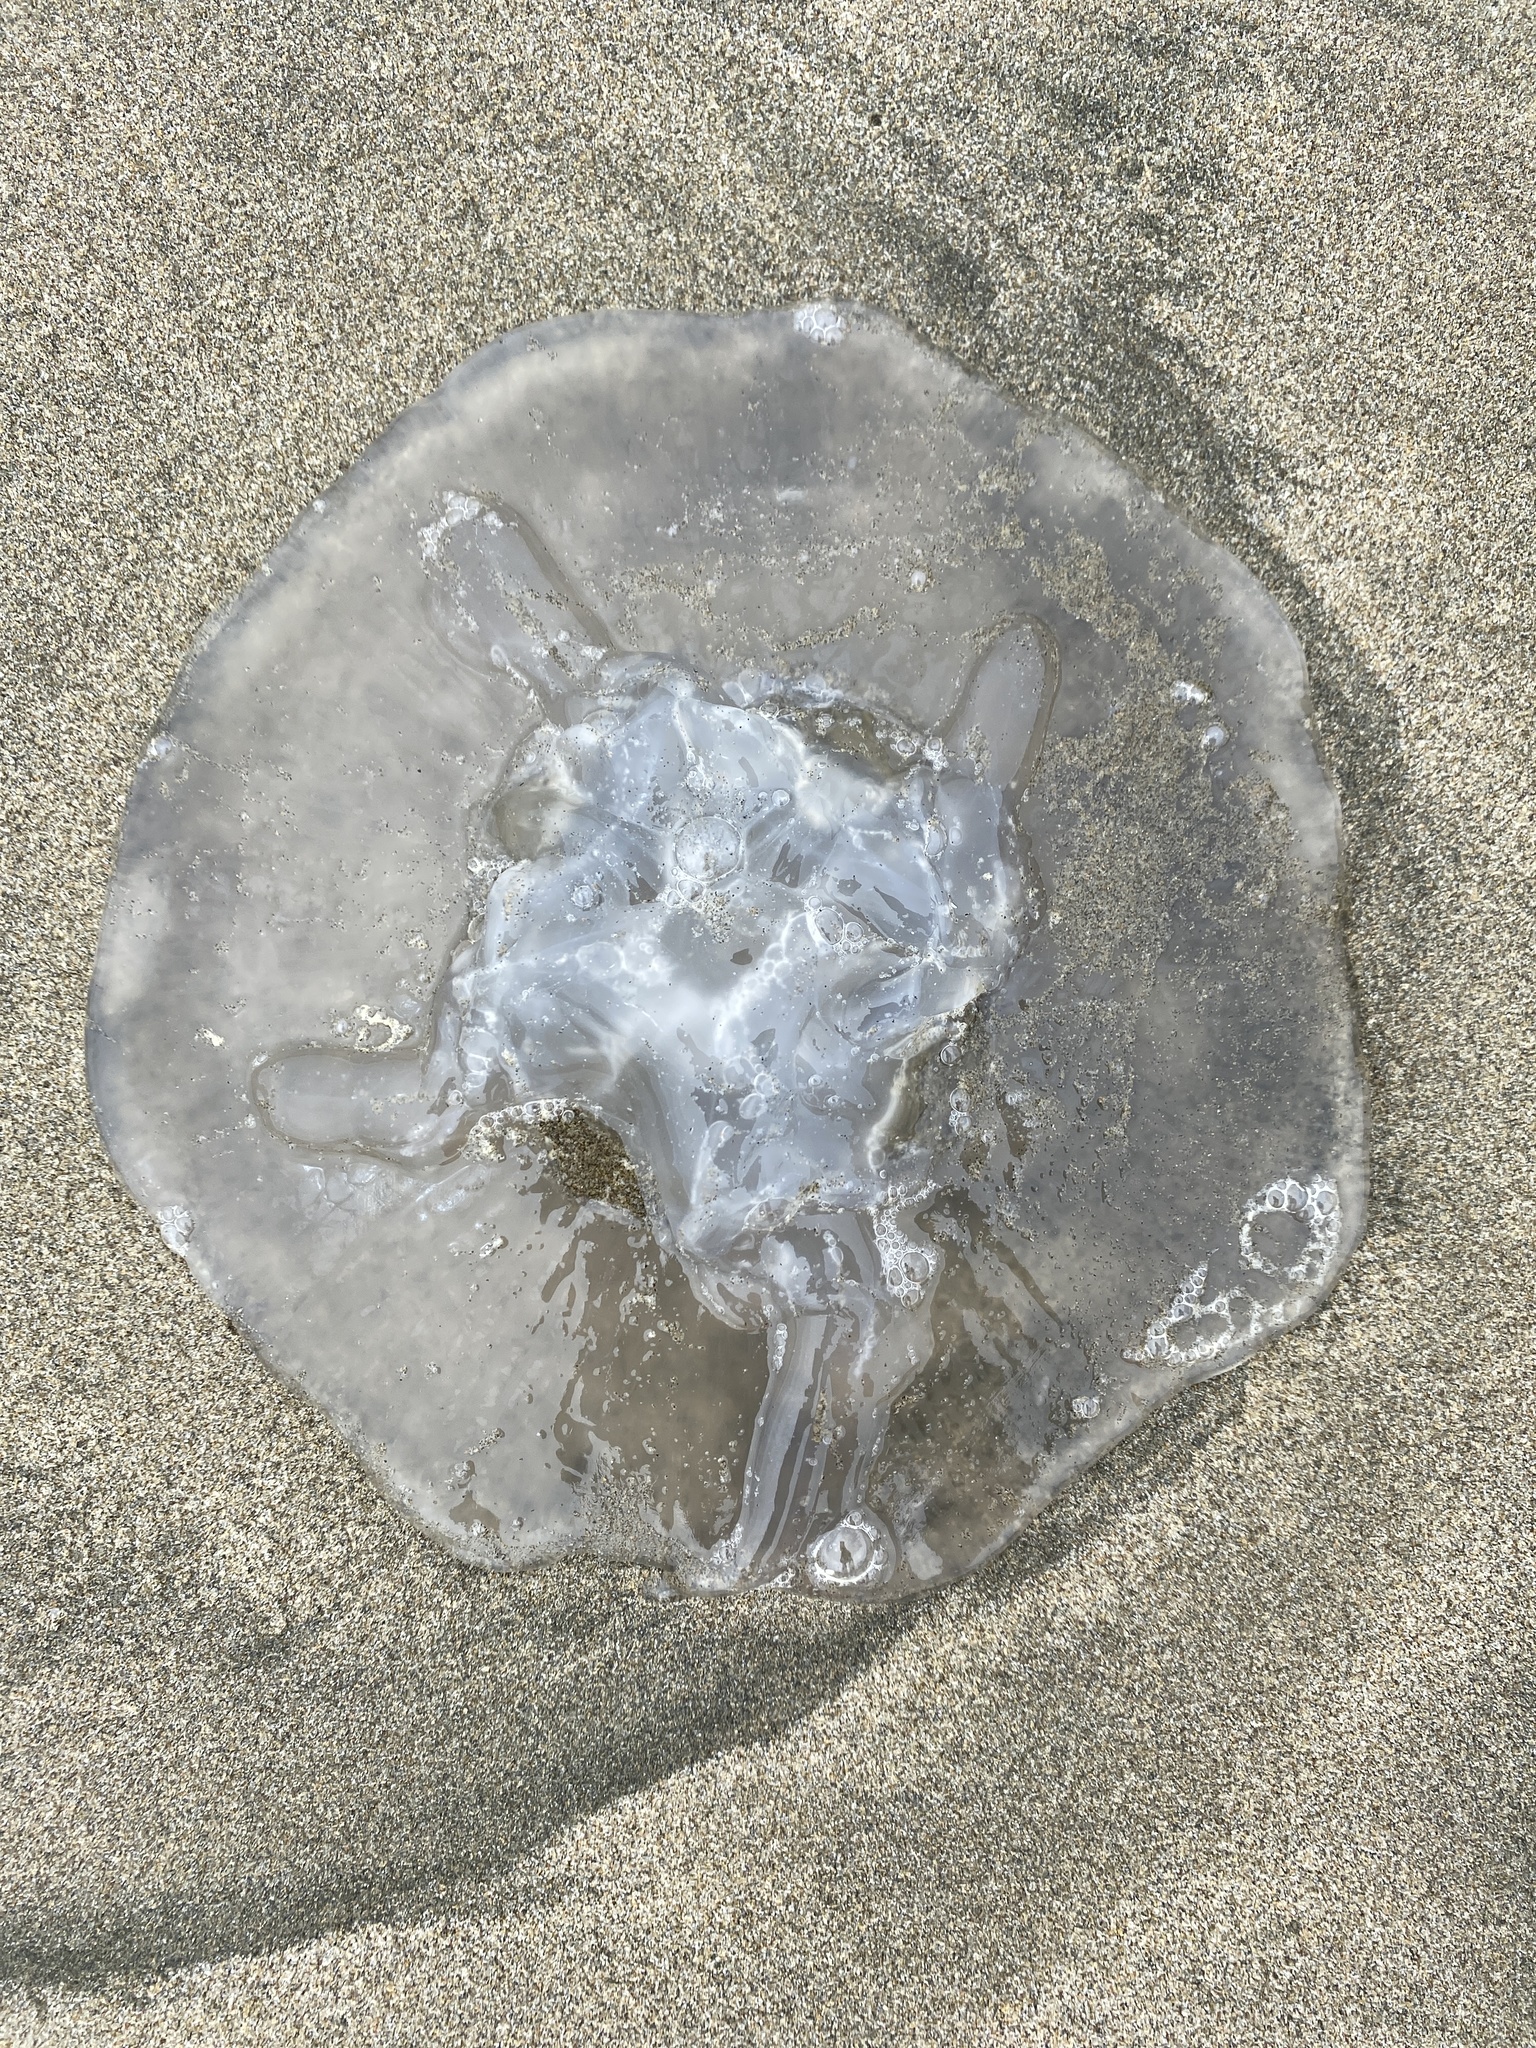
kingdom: Animalia
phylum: Cnidaria
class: Scyphozoa
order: Semaeostomeae
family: Ulmaridae
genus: Aurelia
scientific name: Aurelia labiata
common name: Pacific moon jelly
